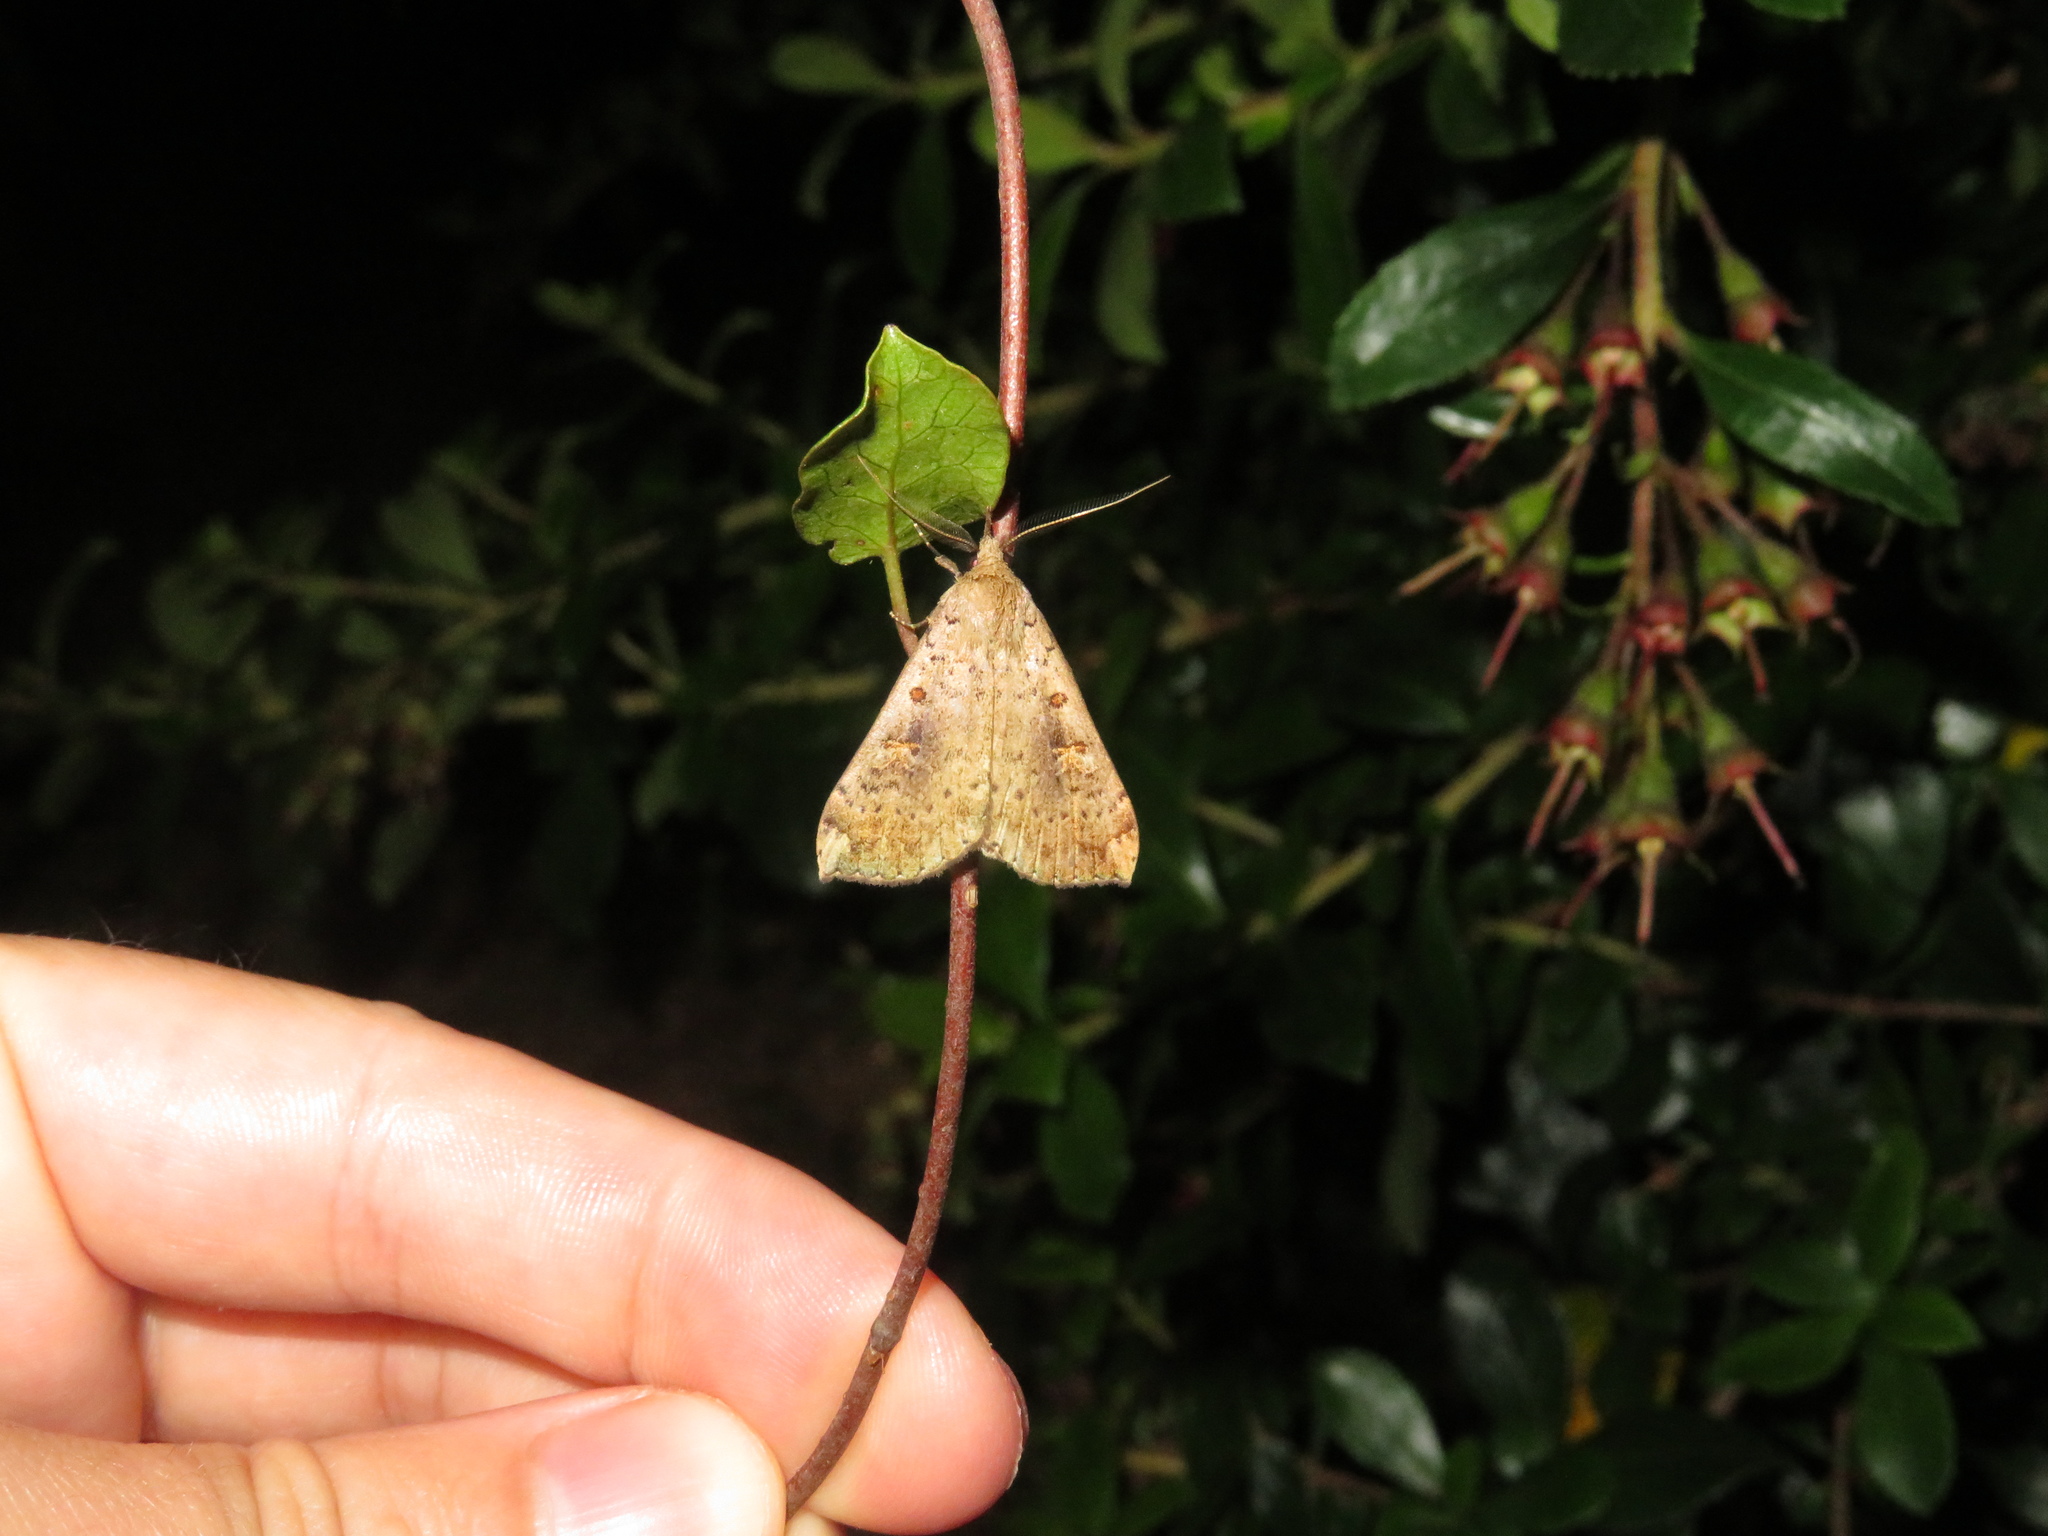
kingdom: Animalia
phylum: Arthropoda
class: Insecta
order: Lepidoptera
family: Erebidae
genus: Rhapsa
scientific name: Rhapsa scotosialis
